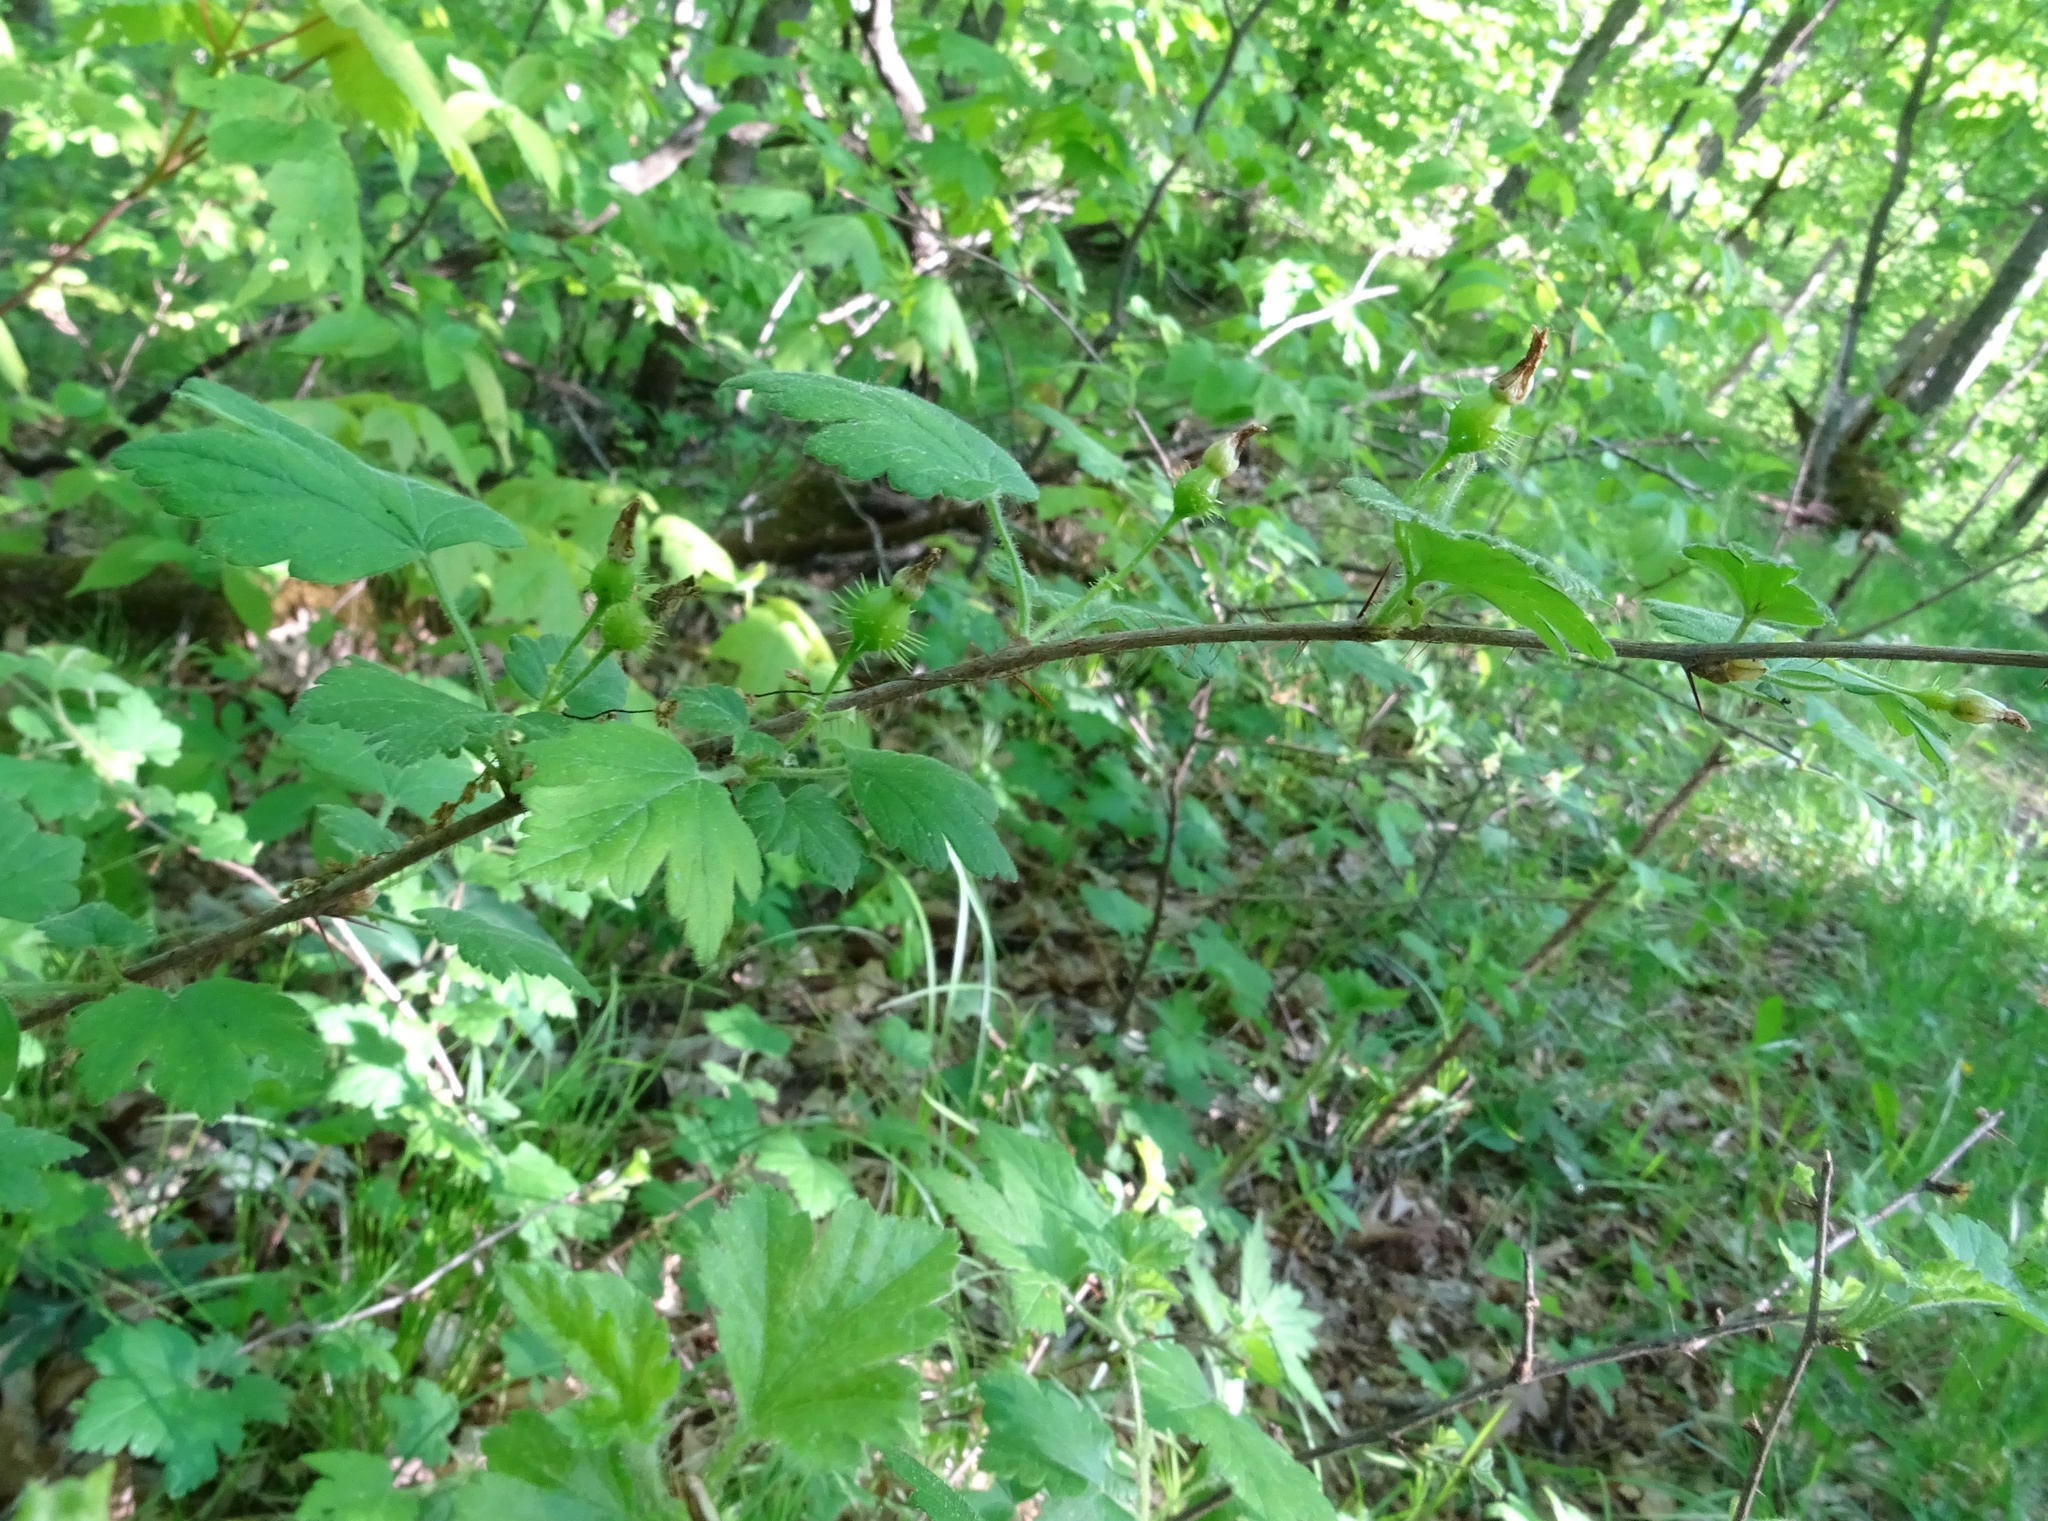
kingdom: Plantae
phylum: Tracheophyta
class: Magnoliopsida
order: Saxifragales
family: Grossulariaceae
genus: Ribes
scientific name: Ribes cynosbati
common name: American gooseberry
